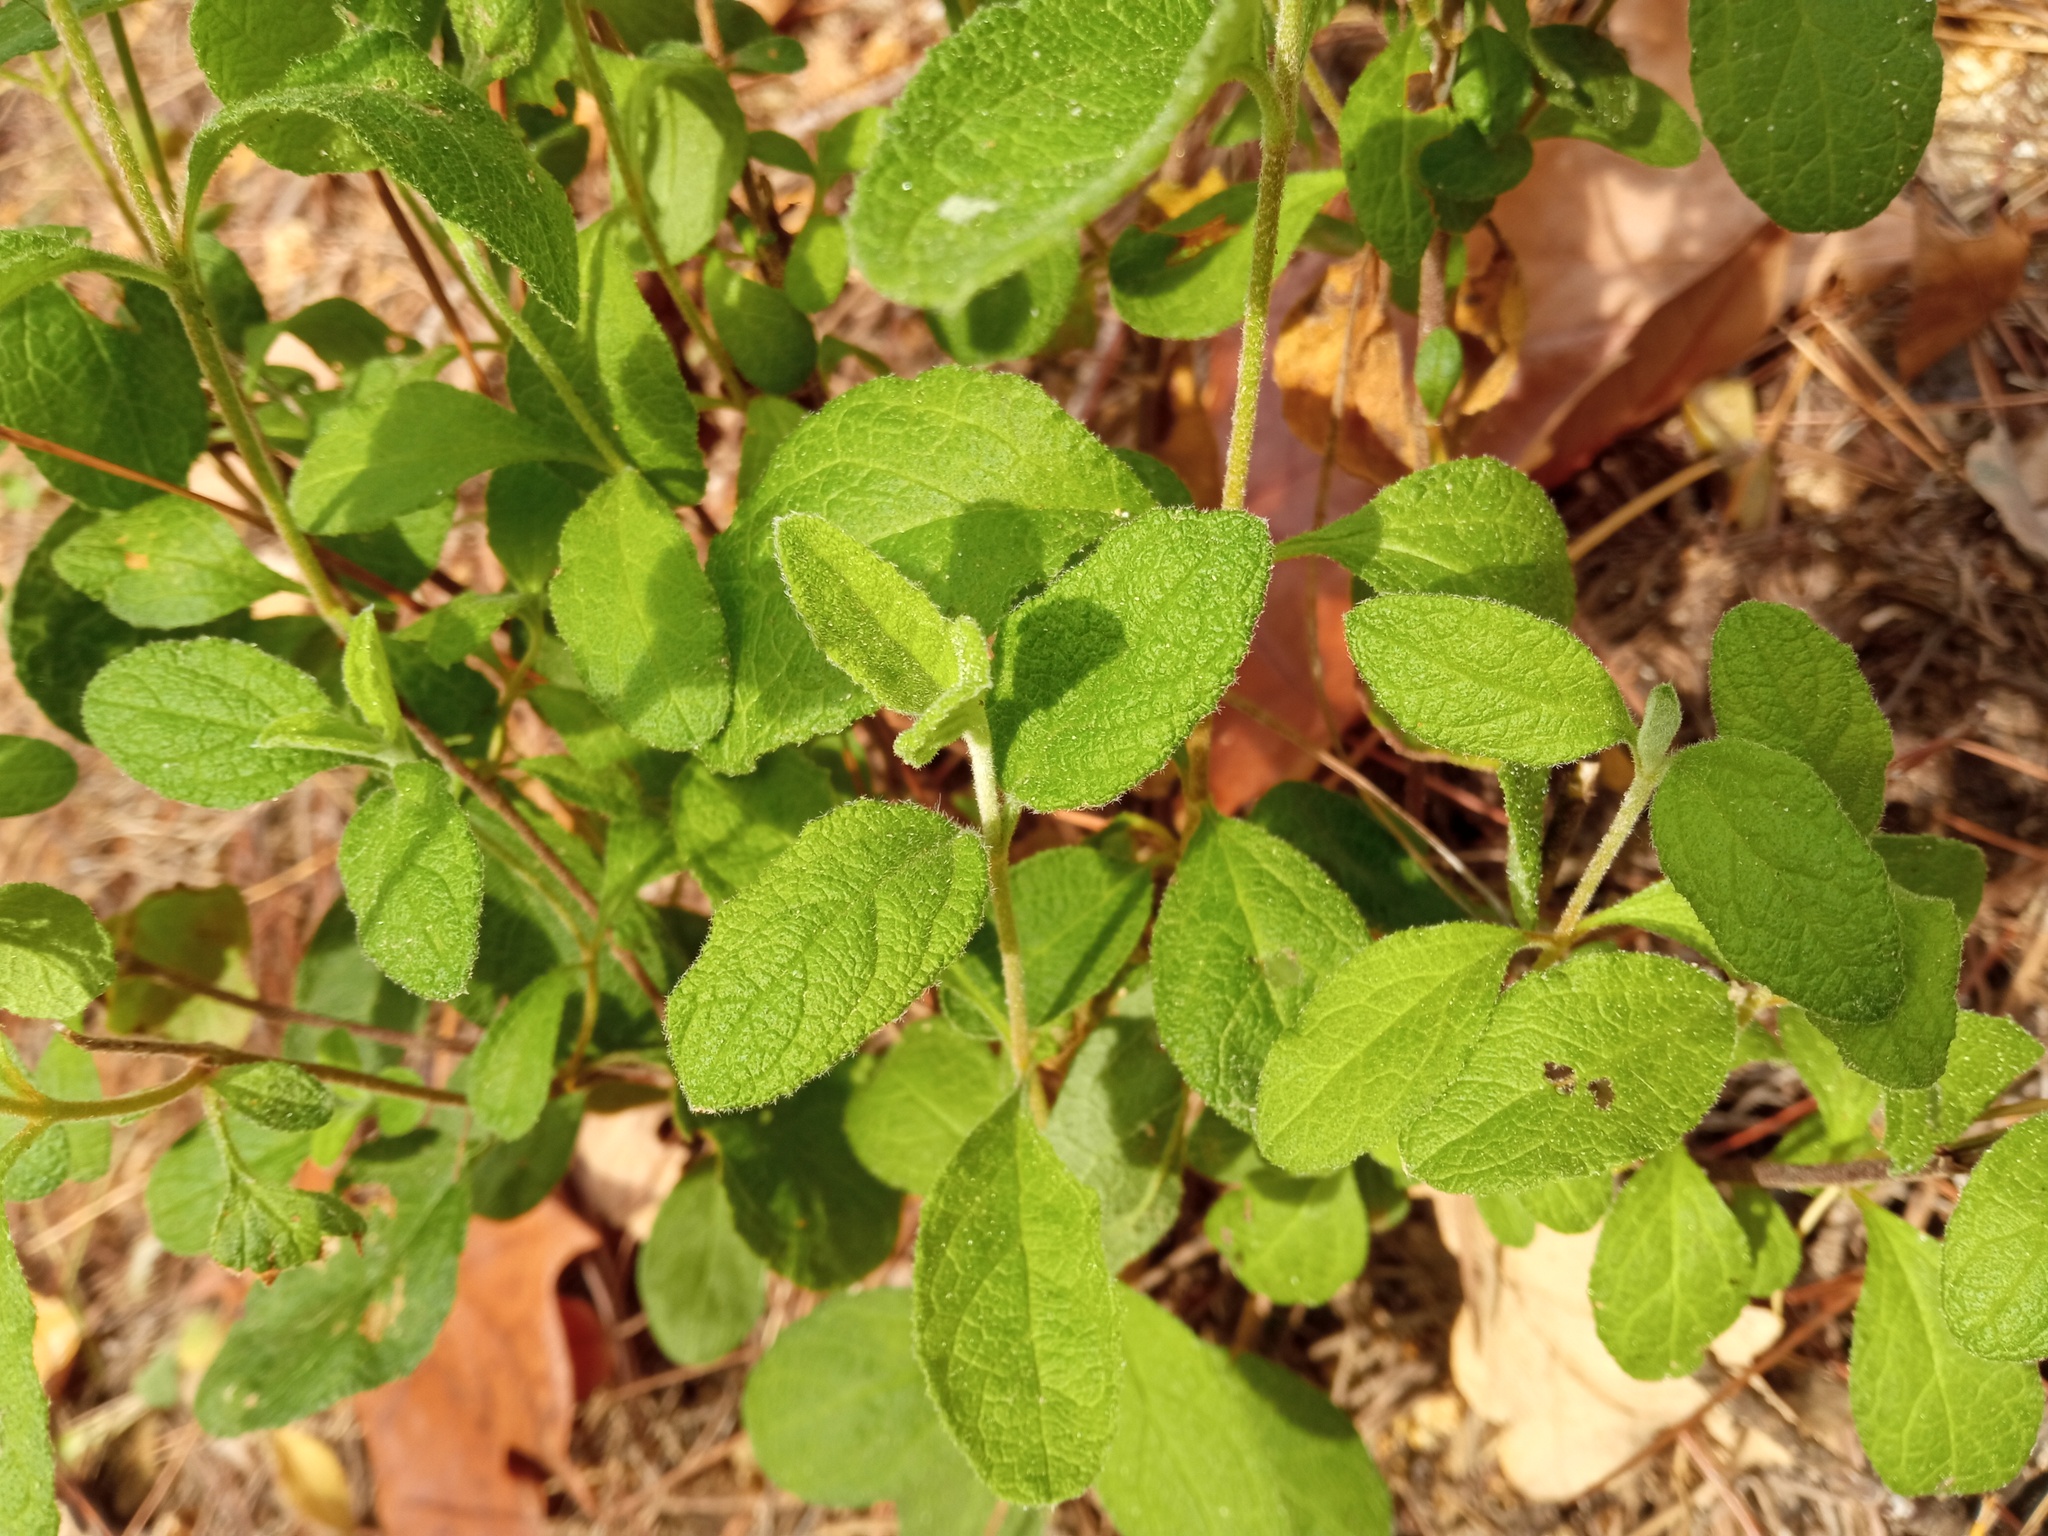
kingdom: Plantae
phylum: Tracheophyta
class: Magnoliopsida
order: Malvales
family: Cistaceae
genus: Cistus
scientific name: Cistus salviifolius
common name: Salvia cistus
